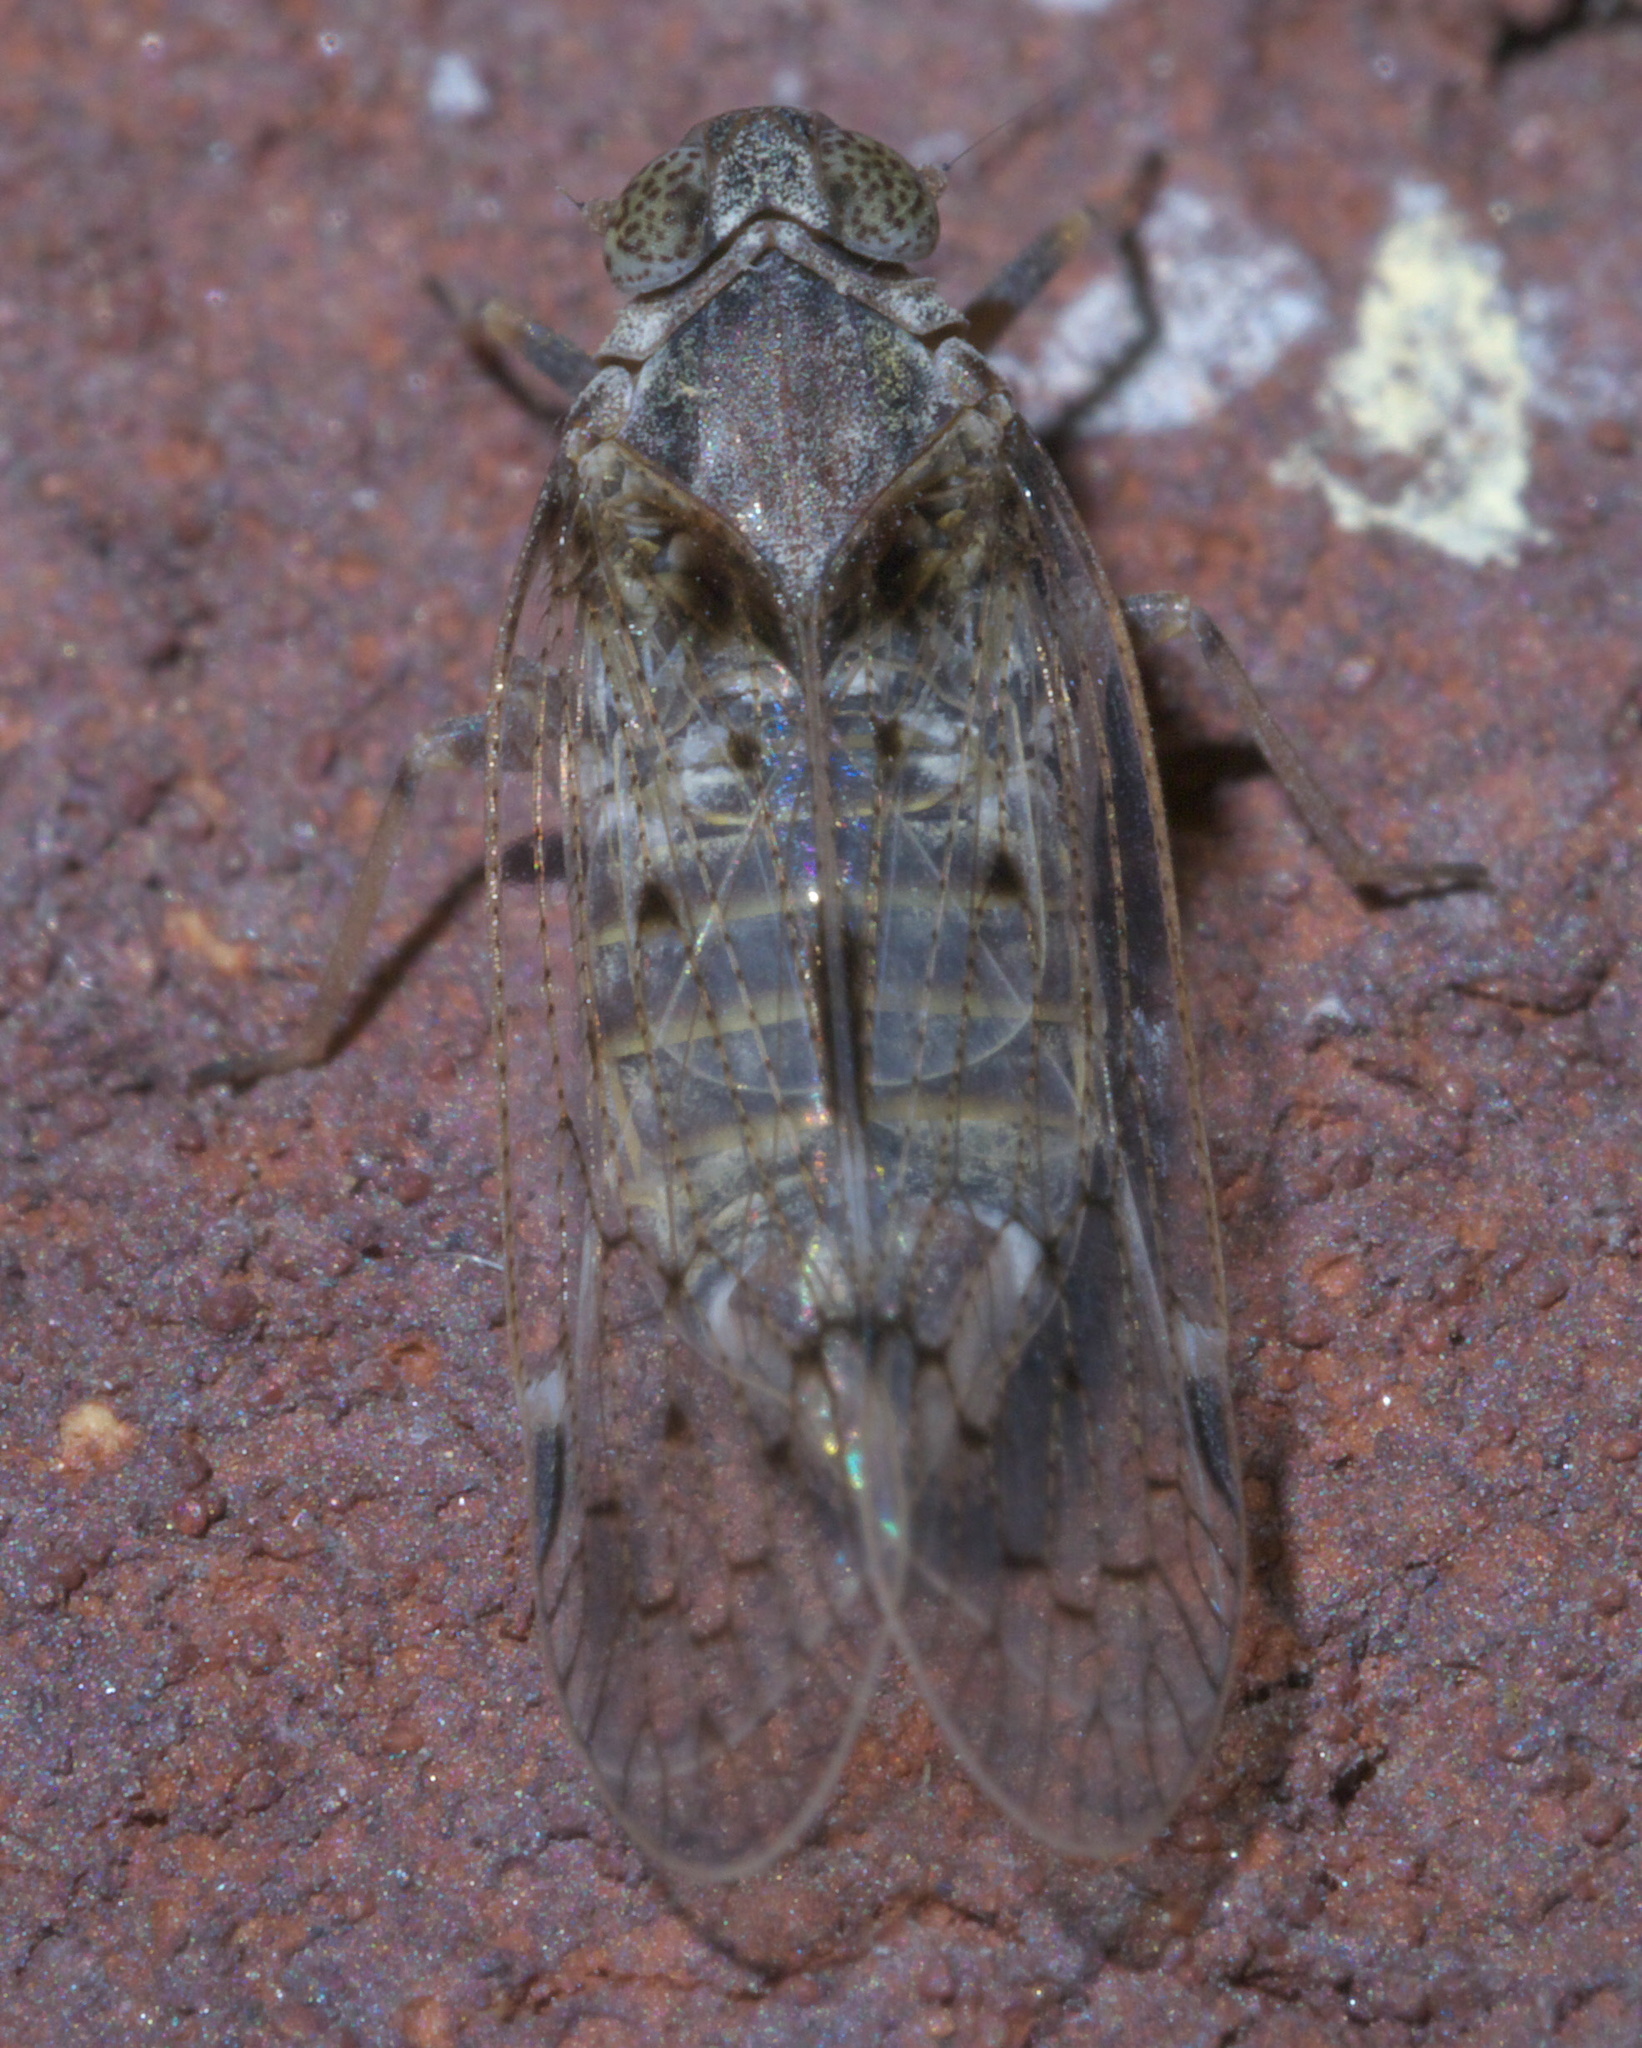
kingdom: Animalia
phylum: Arthropoda
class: Insecta
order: Hemiptera
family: Cixiidae
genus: Melanoliarus
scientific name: Melanoliarus aridus
